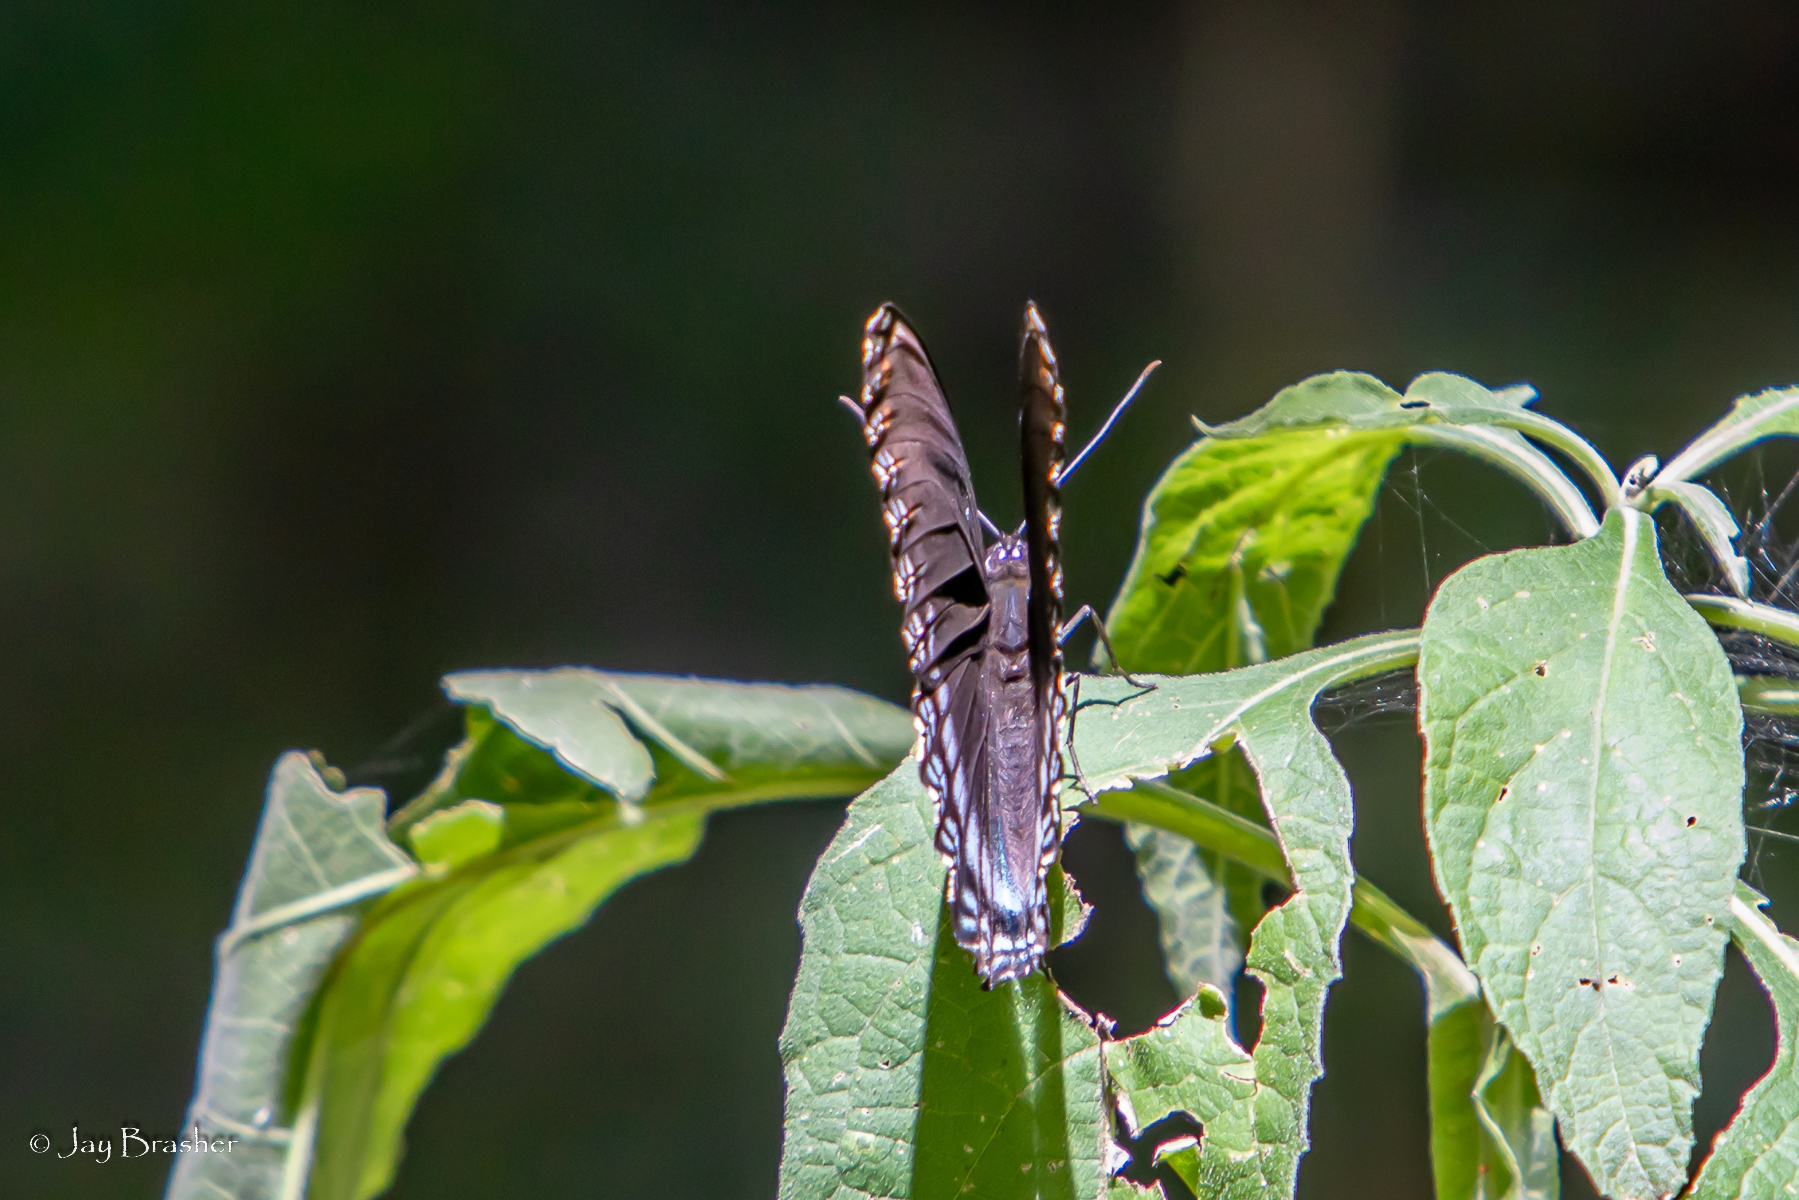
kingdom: Animalia
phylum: Arthropoda
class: Insecta
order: Lepidoptera
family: Nymphalidae
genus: Limenitis
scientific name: Limenitis astyanax
